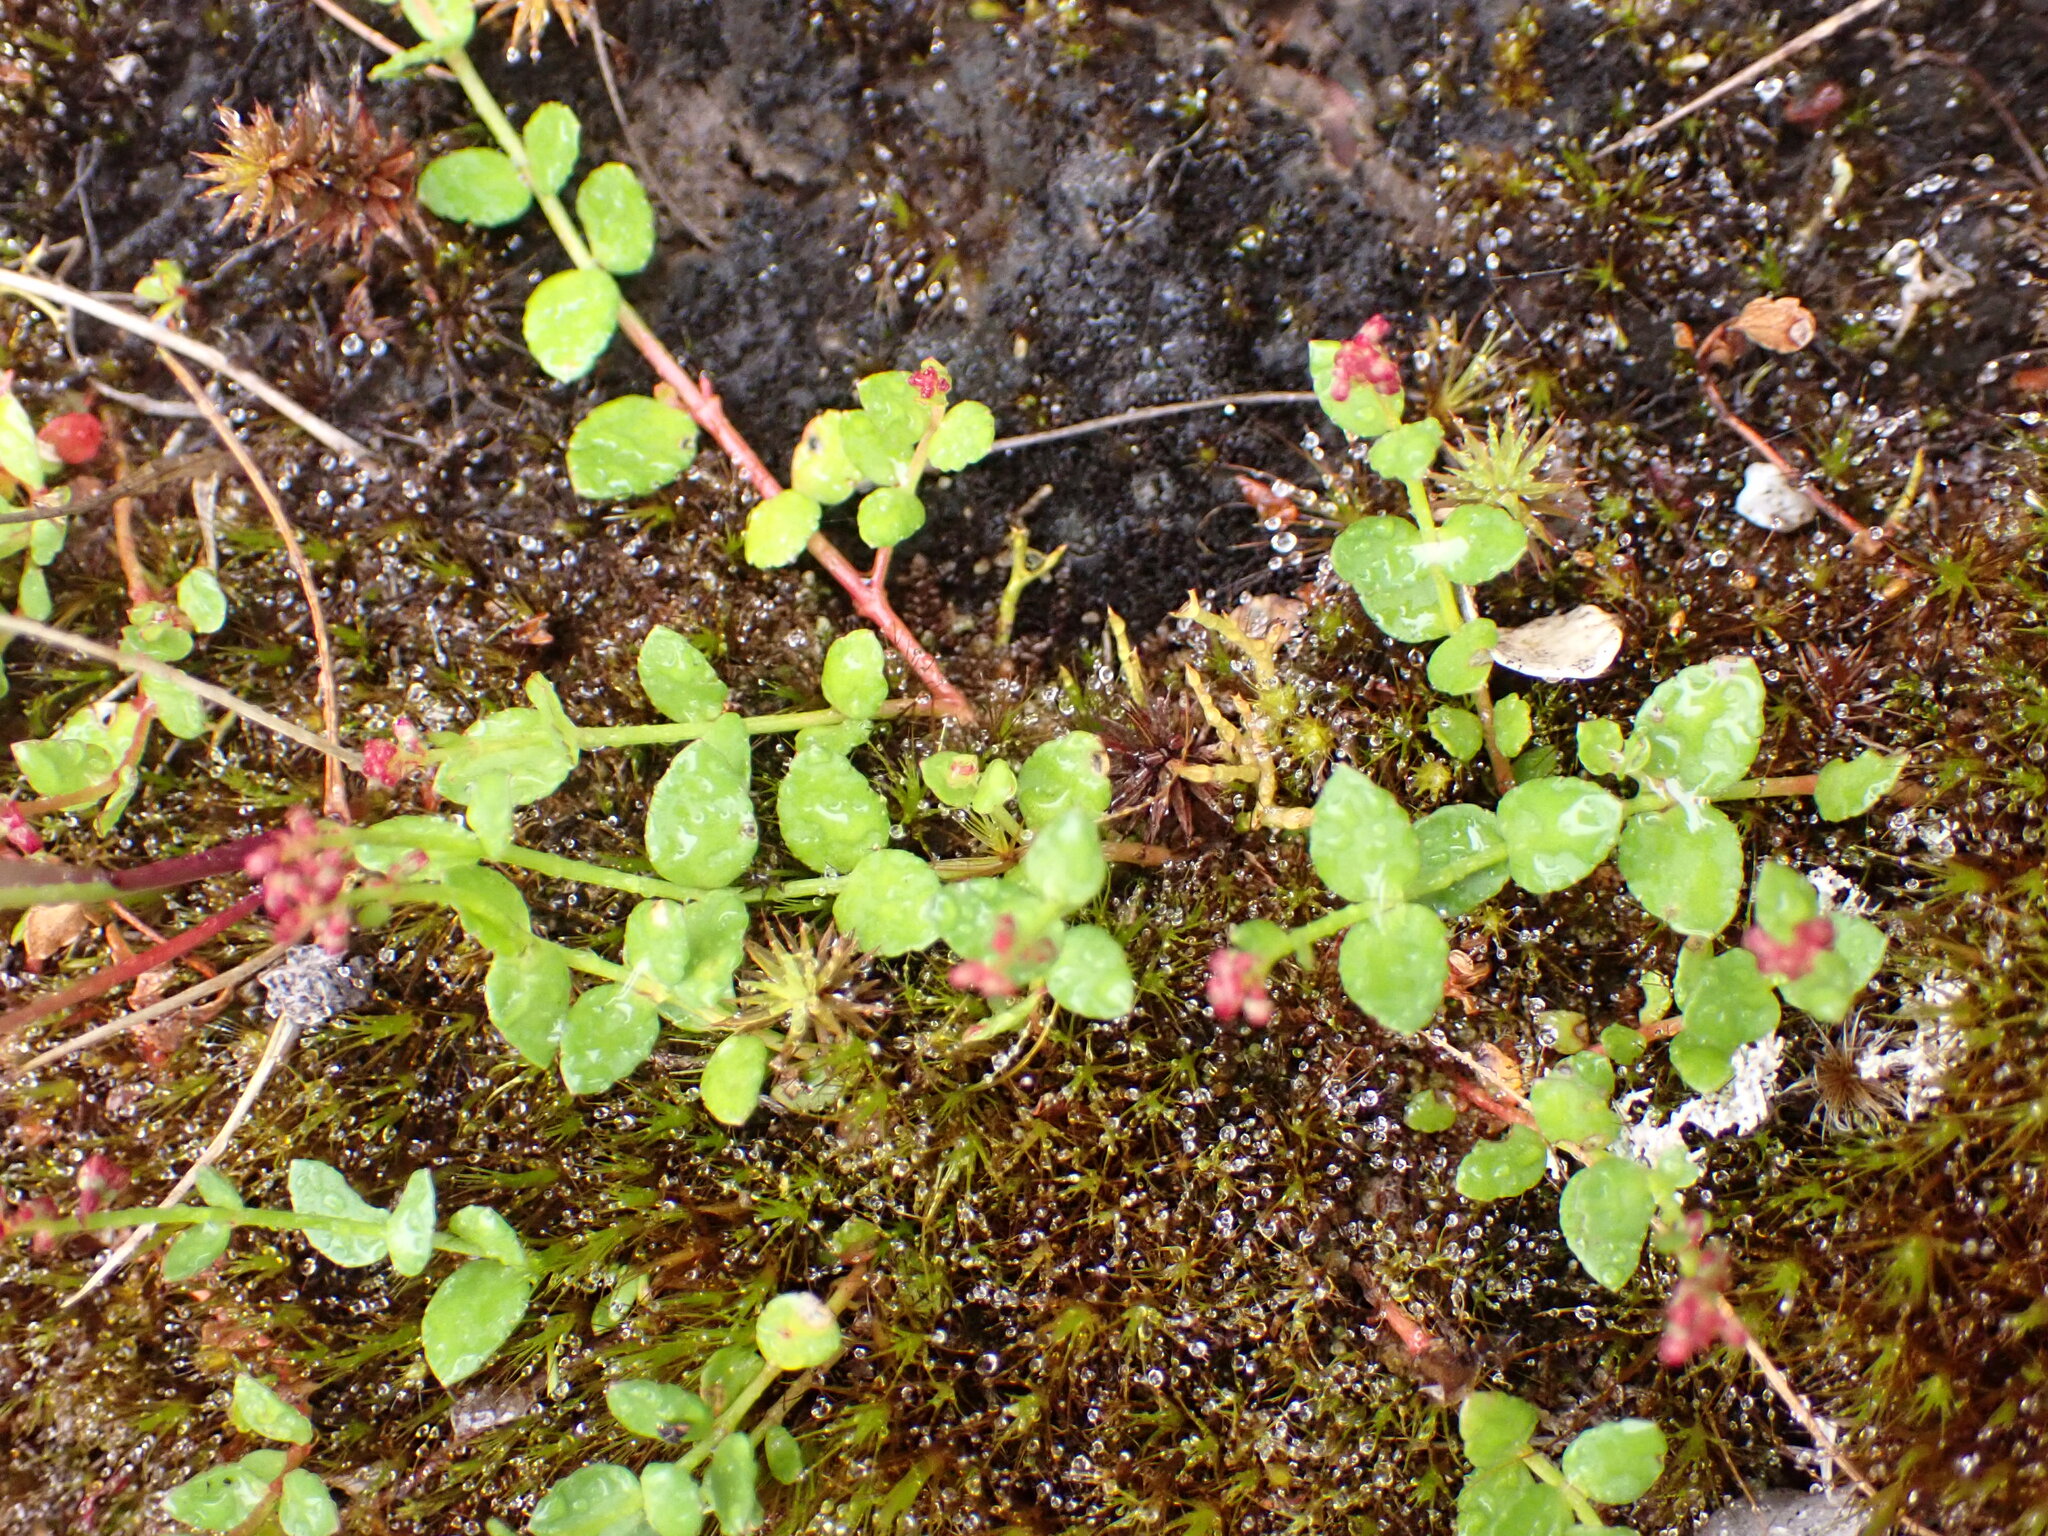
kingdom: Plantae
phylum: Tracheophyta
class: Magnoliopsida
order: Saxifragales
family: Haloragaceae
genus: Gonocarpus
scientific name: Gonocarpus micranthus
